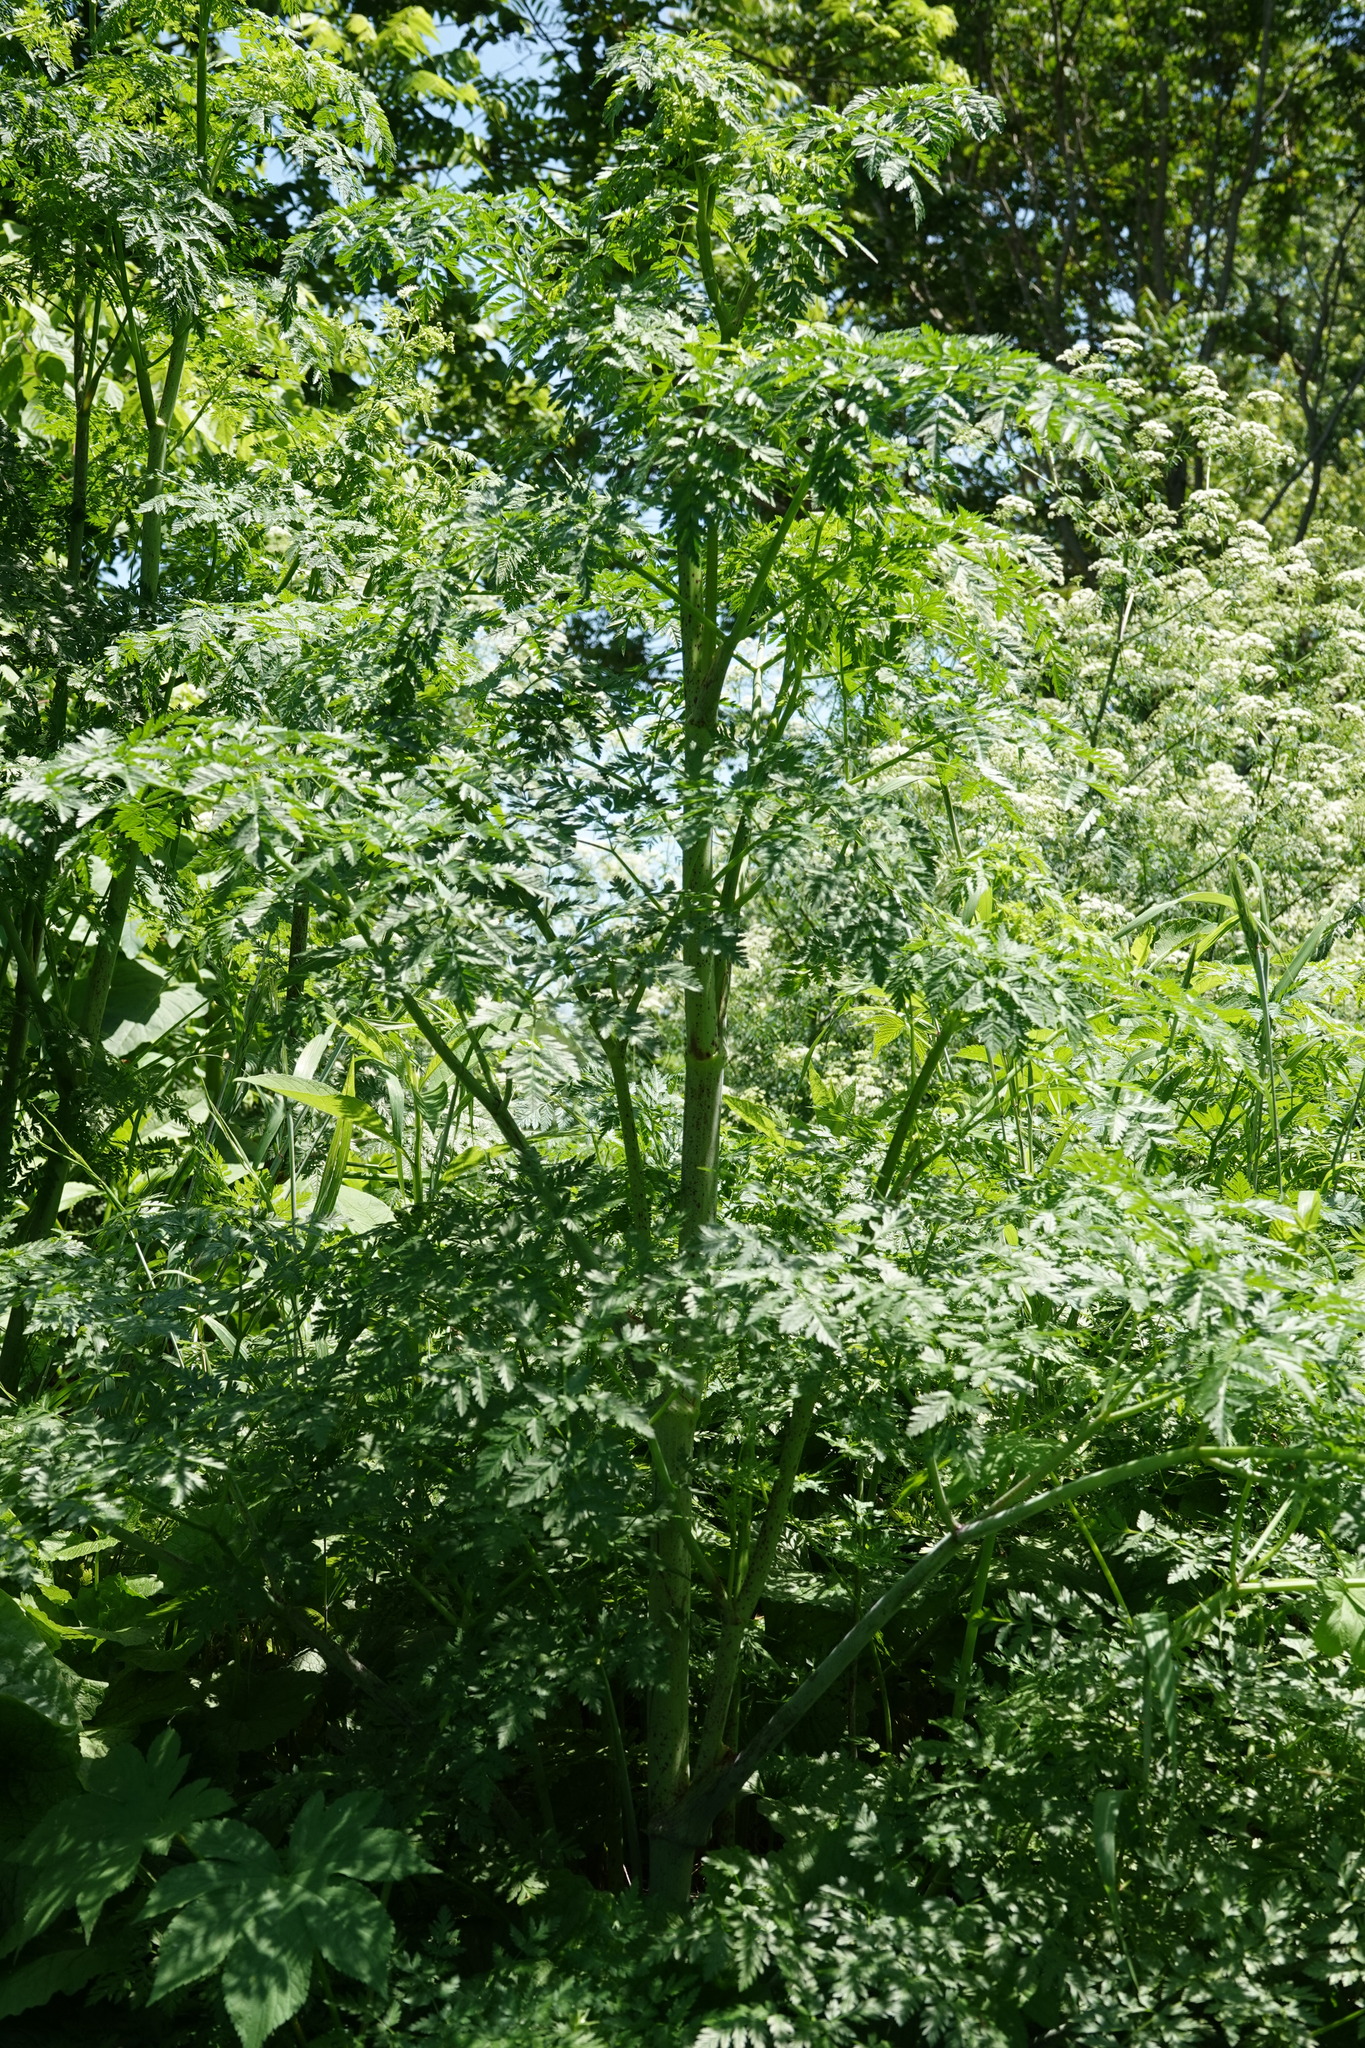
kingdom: Plantae
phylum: Tracheophyta
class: Magnoliopsida
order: Apiales
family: Apiaceae
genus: Conium
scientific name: Conium maculatum
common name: Hemlock
